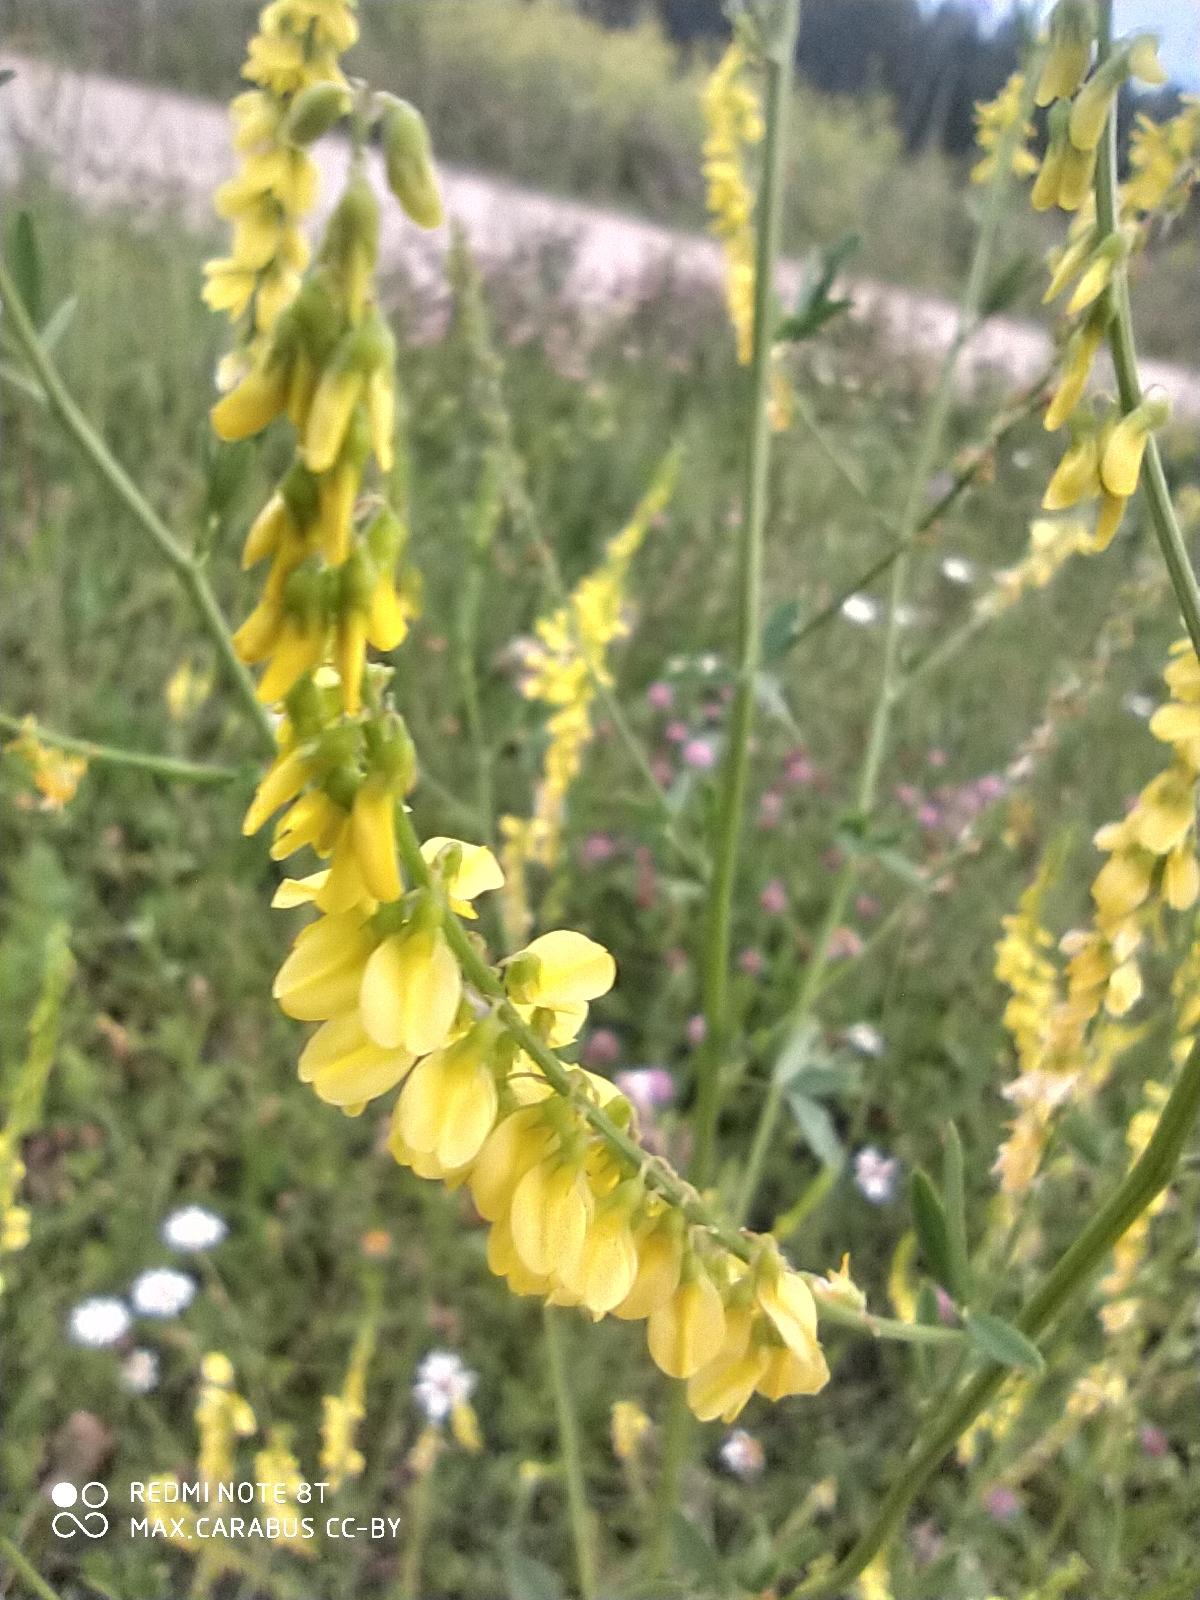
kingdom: Plantae
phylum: Tracheophyta
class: Magnoliopsida
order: Fabales
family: Fabaceae
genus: Melilotus
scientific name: Melilotus officinalis
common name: Sweetclover
